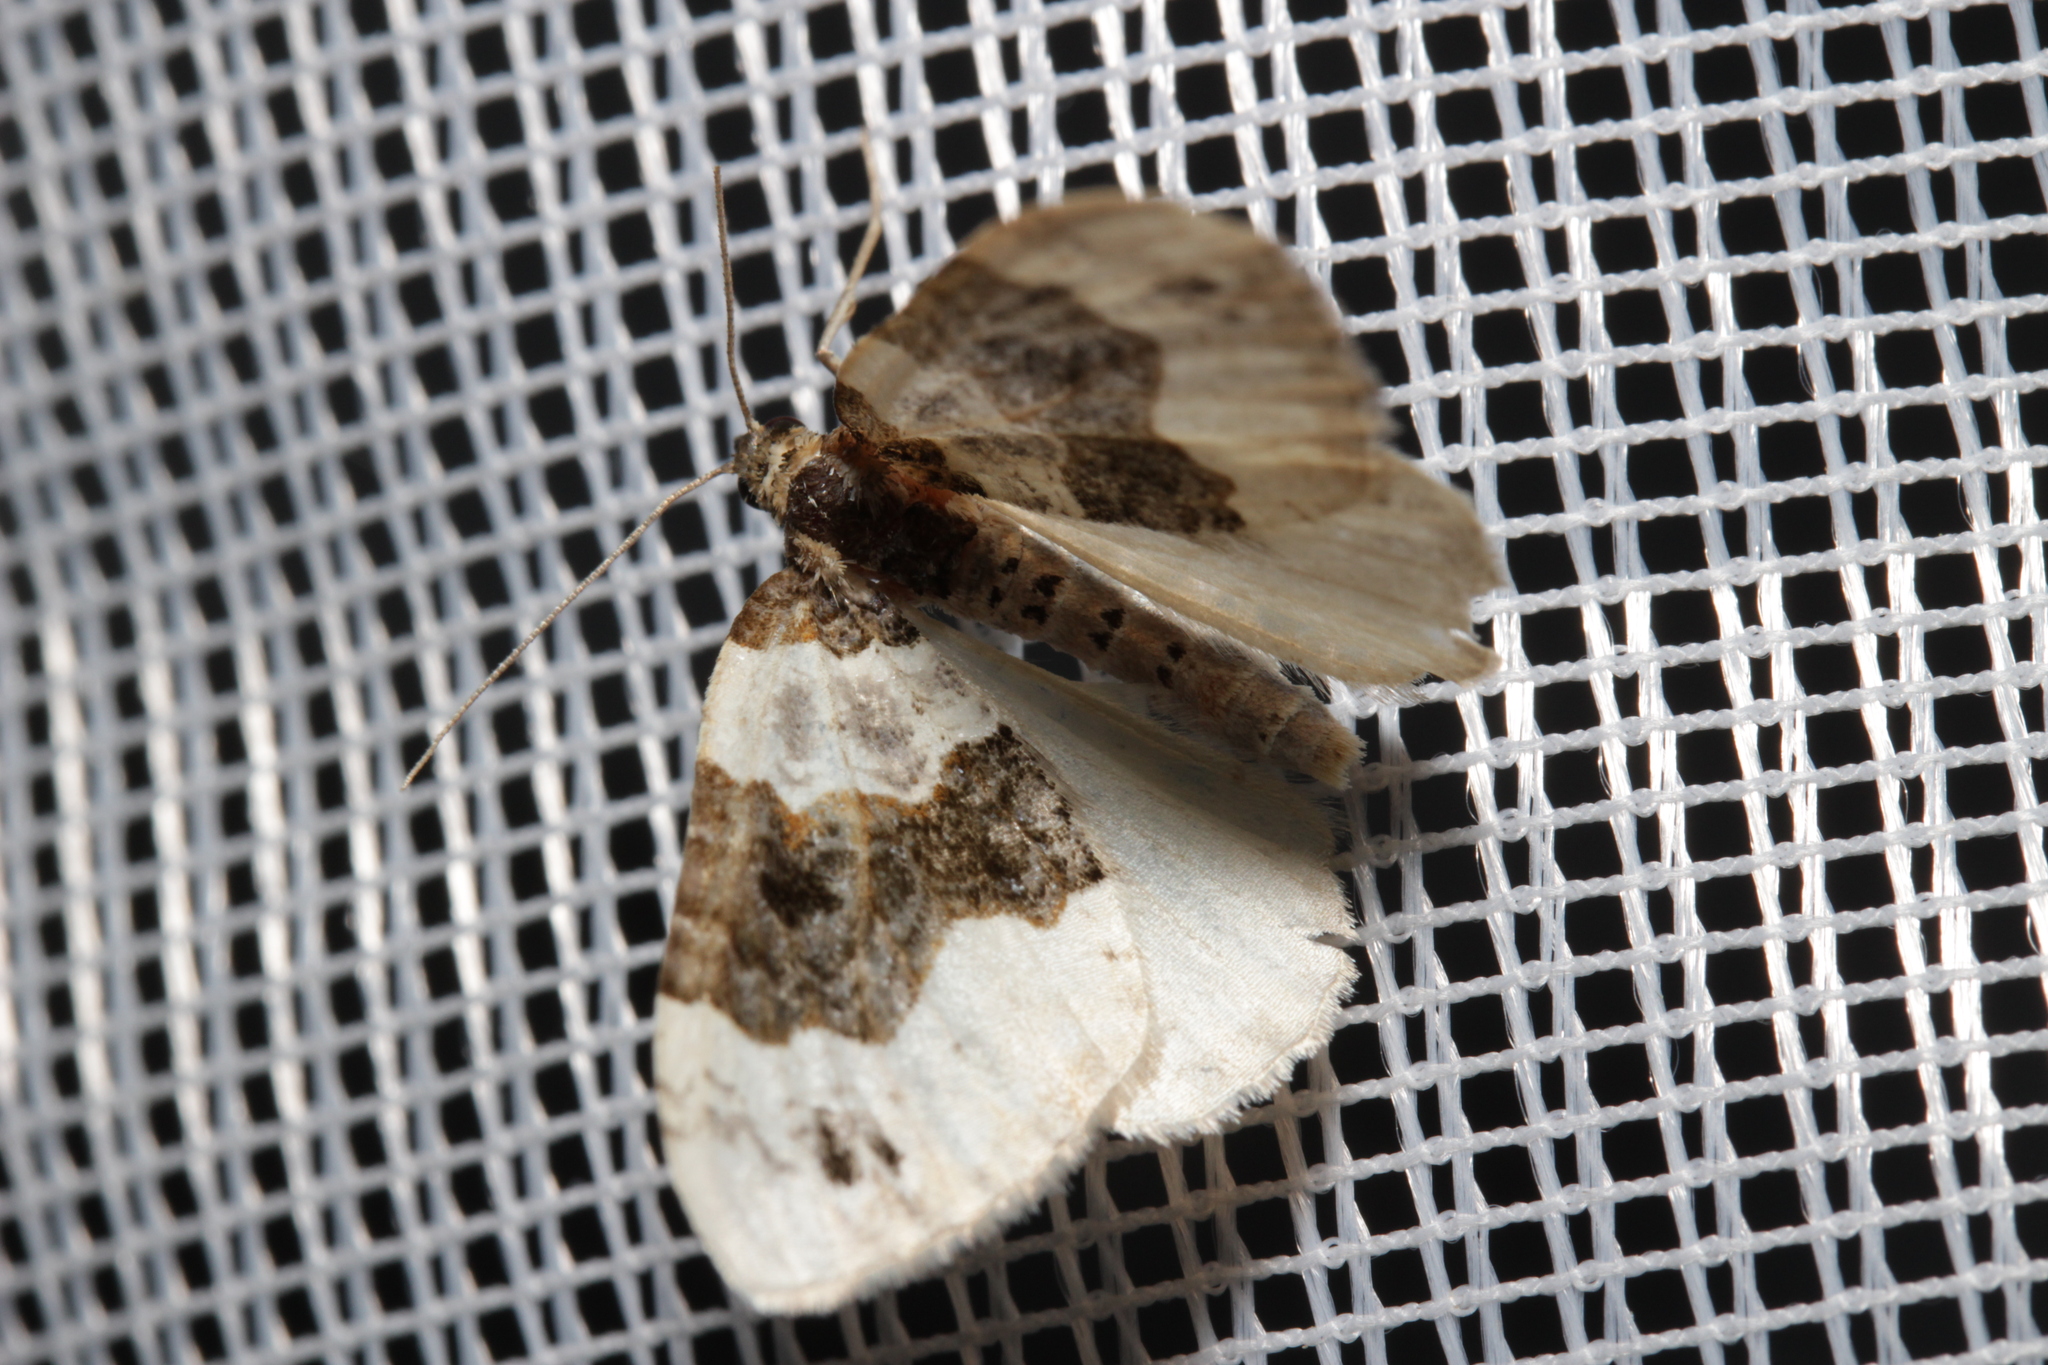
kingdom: Animalia
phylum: Arthropoda
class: Insecta
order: Lepidoptera
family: Geometridae
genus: Cosmorhoe
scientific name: Cosmorhoe ocellata
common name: Purple bar
